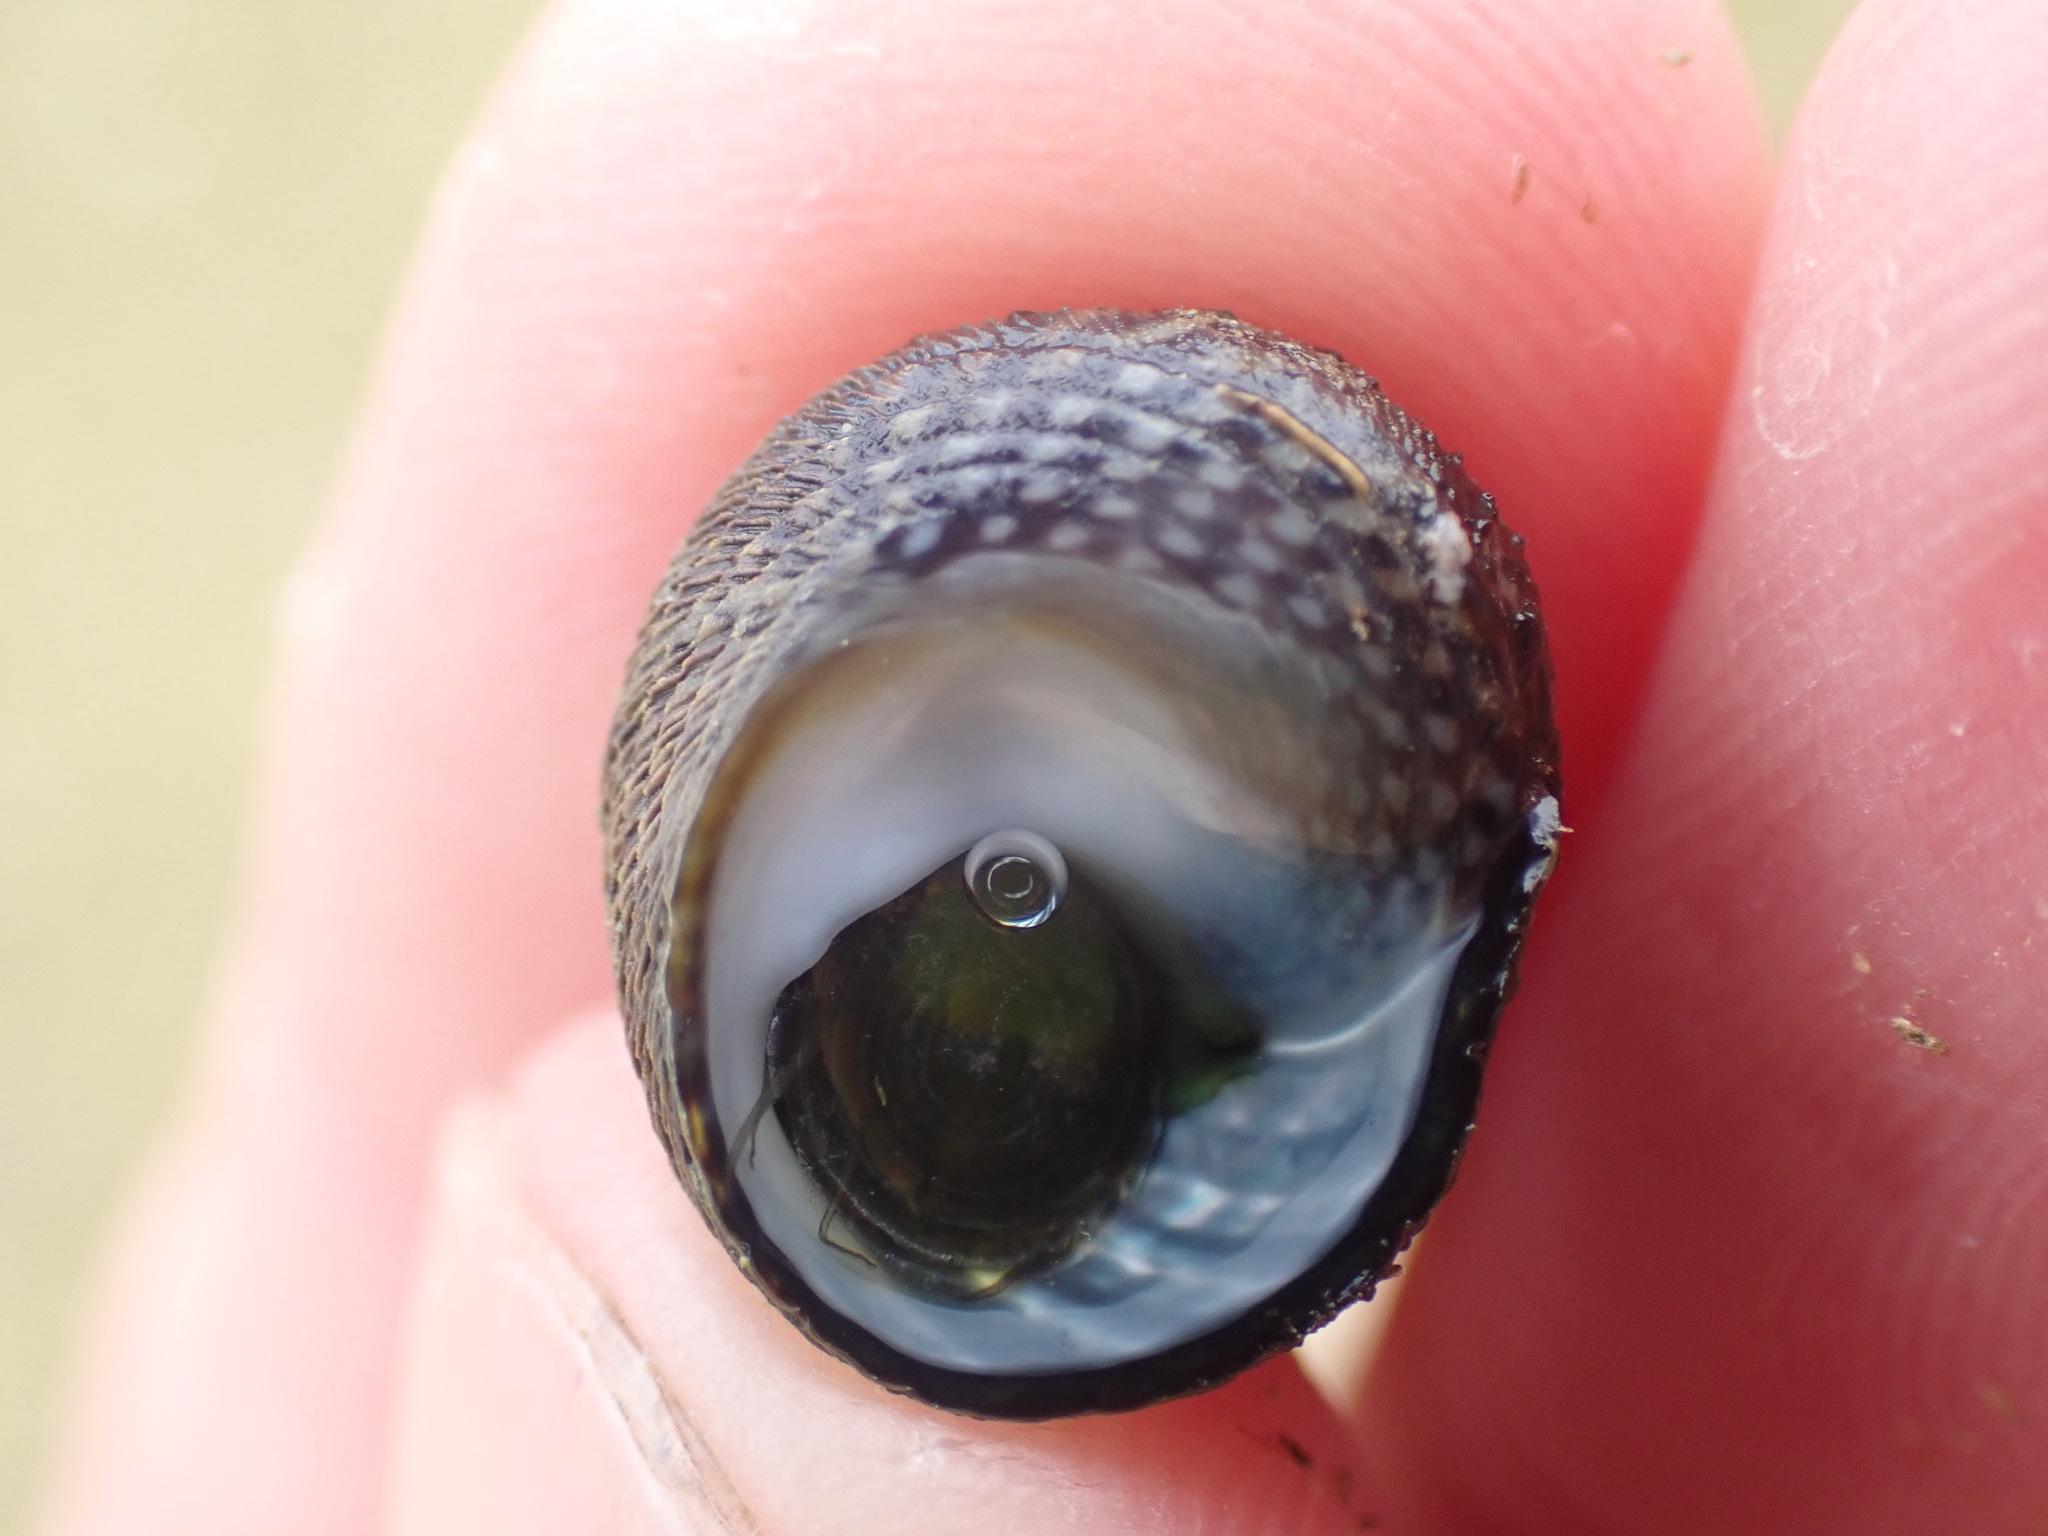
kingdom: Animalia
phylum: Mollusca
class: Gastropoda
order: Trochida
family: Trochidae
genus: Diloma
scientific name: Diloma aethiops
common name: Scorched monodont
